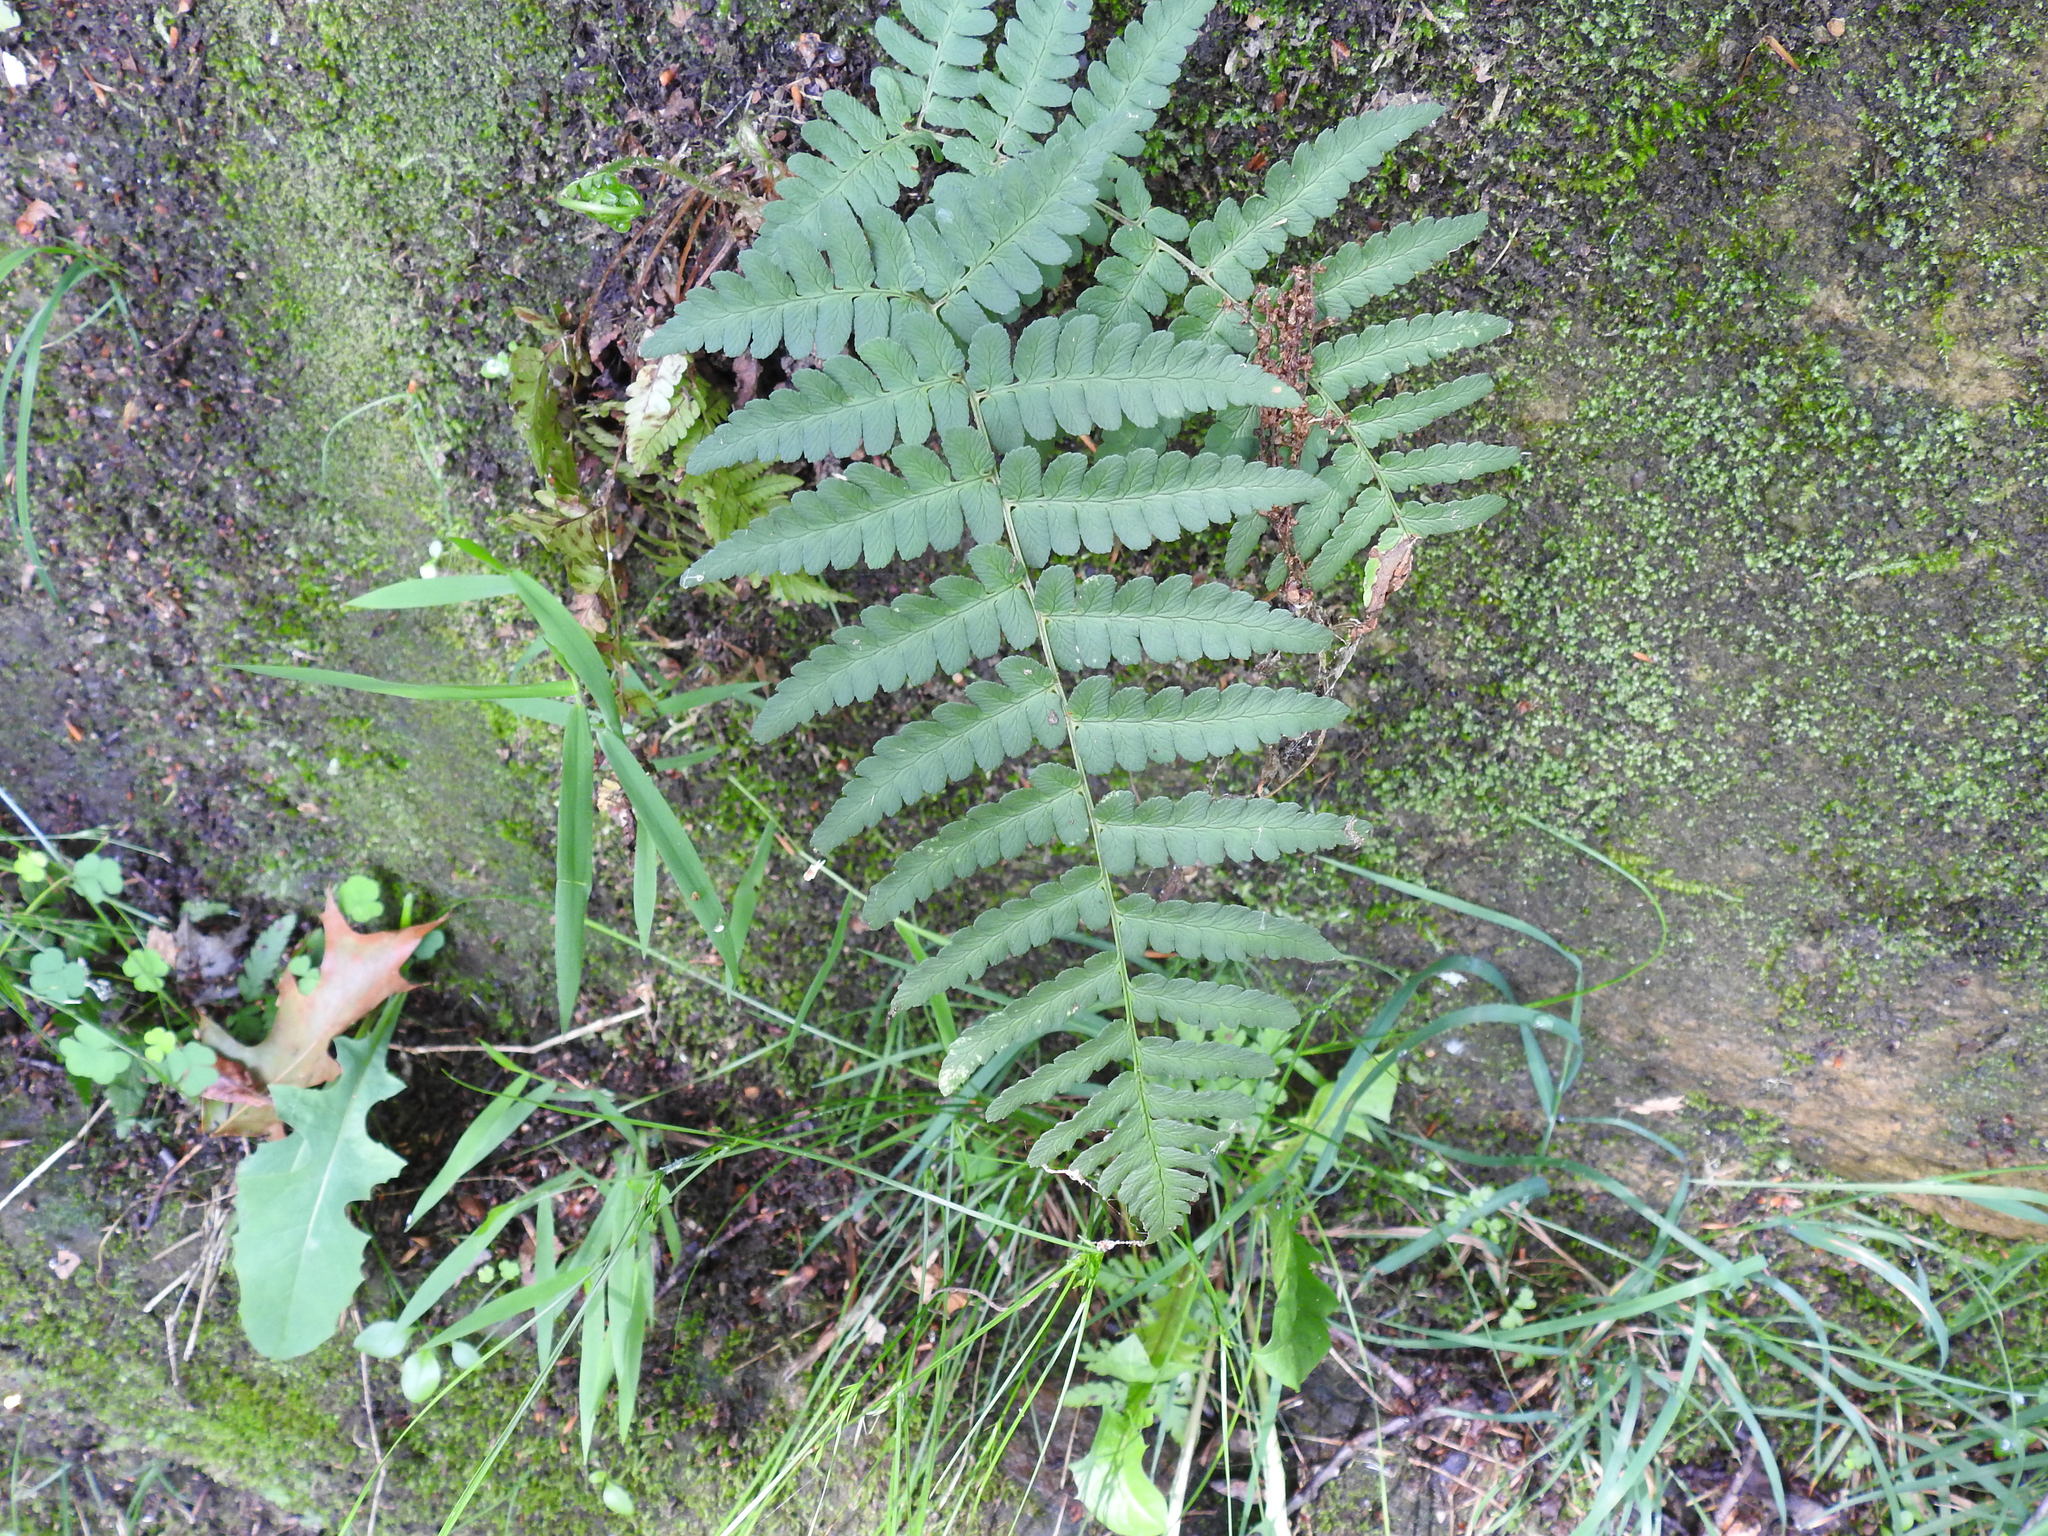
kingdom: Plantae
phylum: Tracheophyta
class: Polypodiopsida
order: Polypodiales
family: Dryopteridaceae
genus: Dryopteris
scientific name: Dryopteris marginalis
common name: Marginal wood fern
